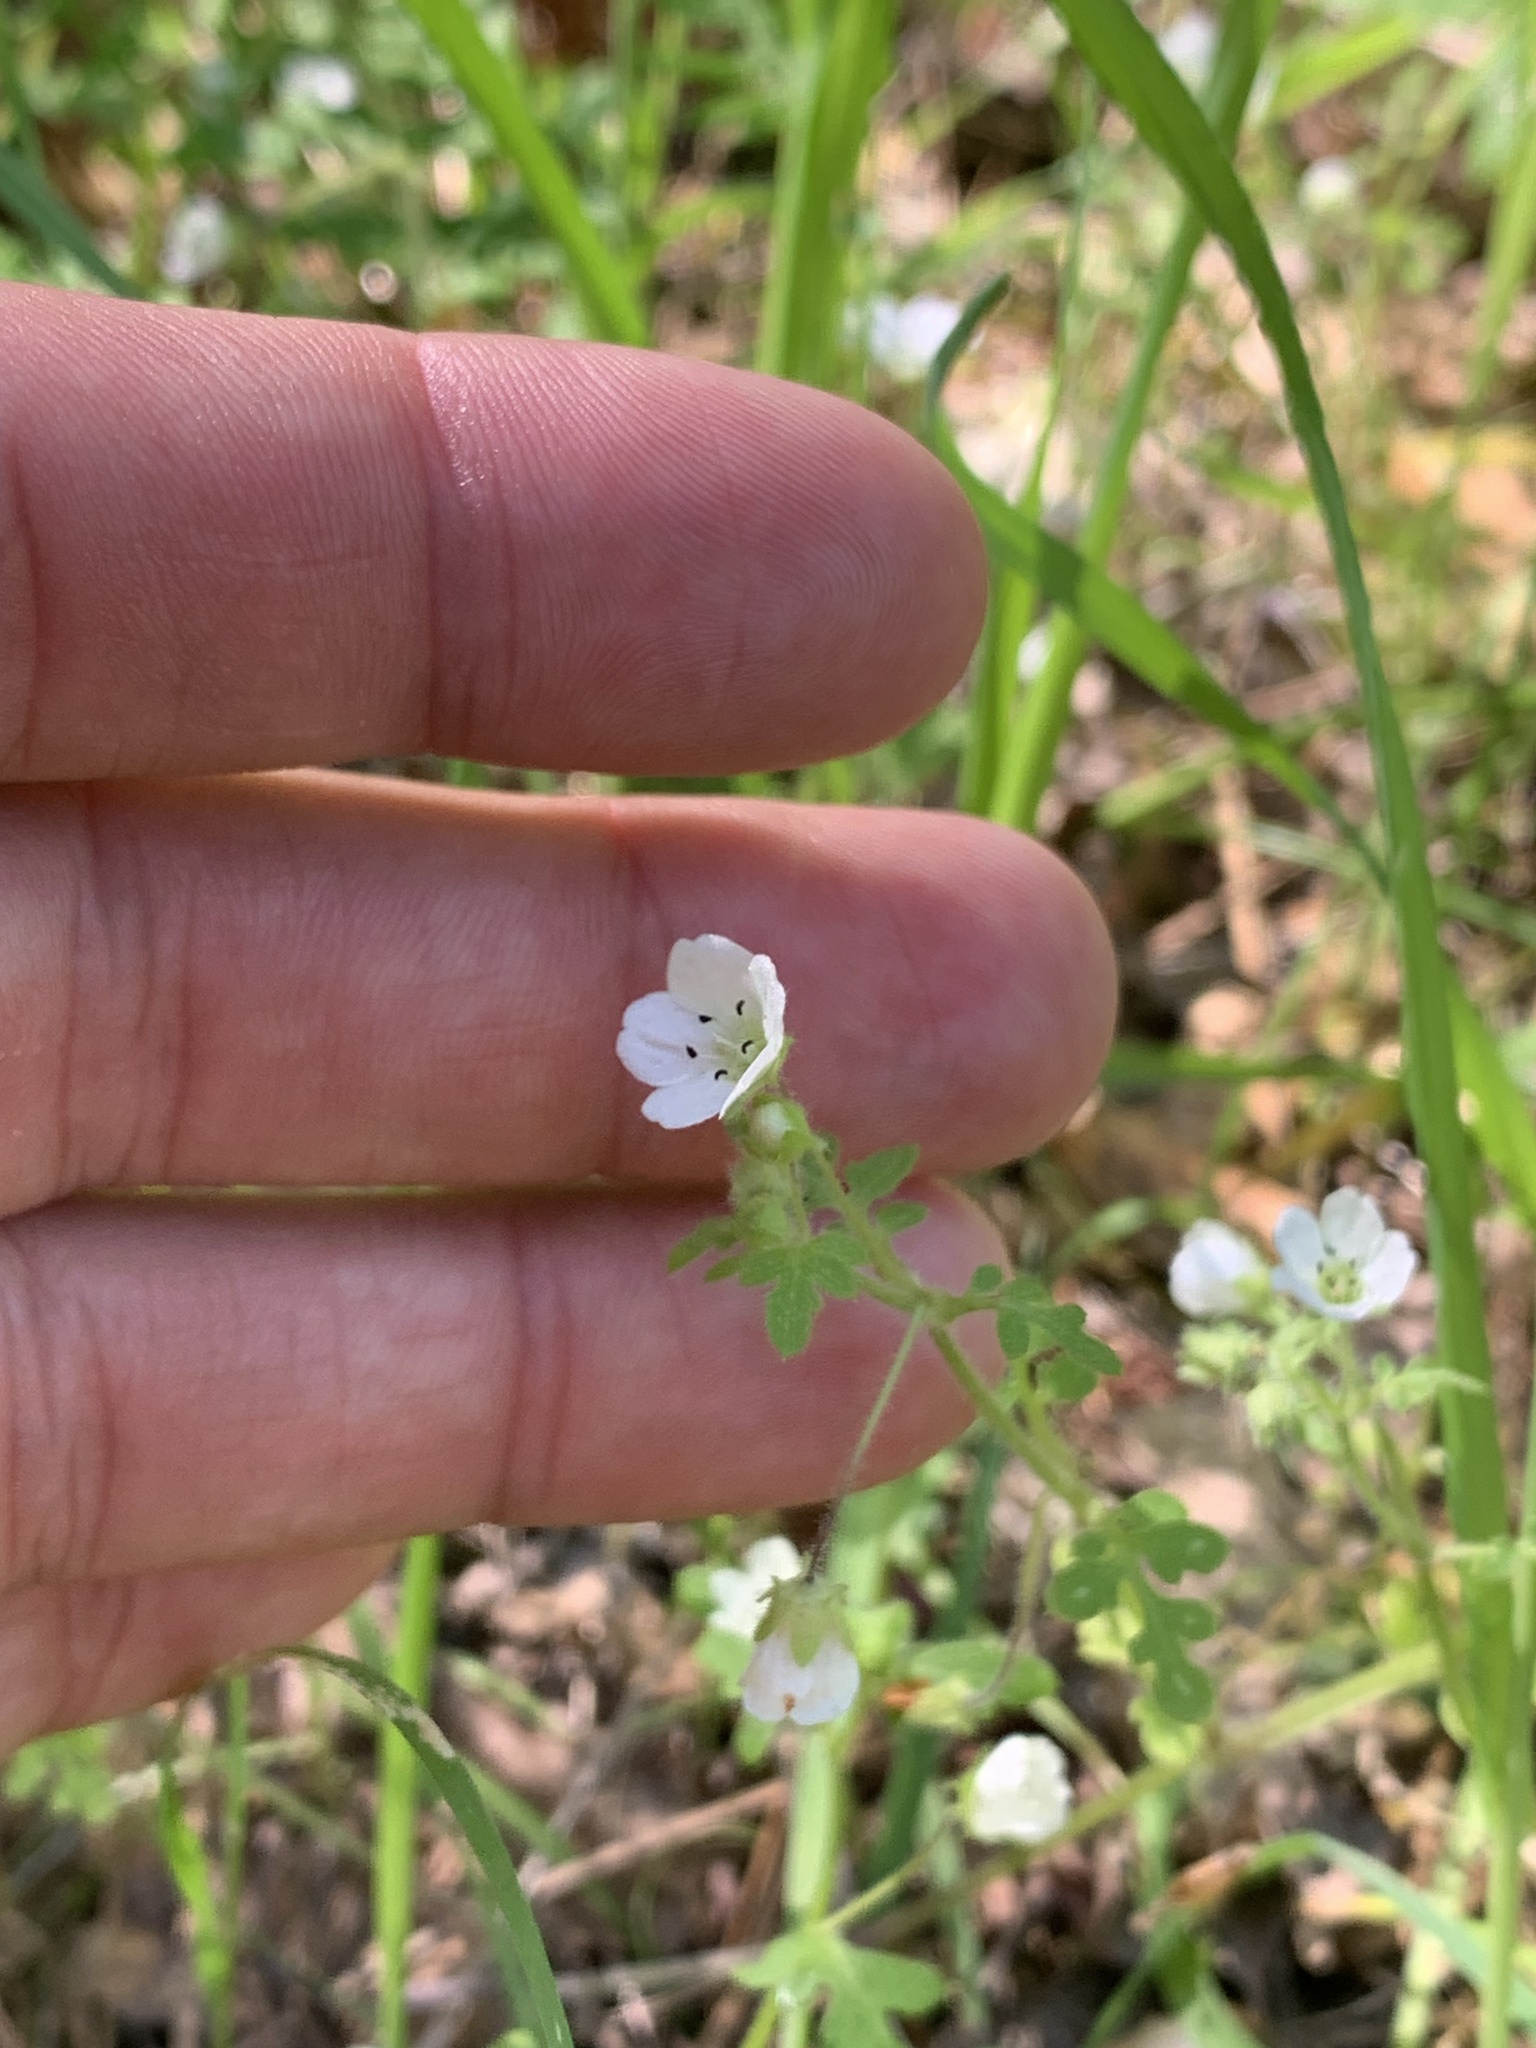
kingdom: Plantae
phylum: Tracheophyta
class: Magnoliopsida
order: Boraginales
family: Hydrophyllaceae
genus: Nemophila
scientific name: Nemophila heterophylla
